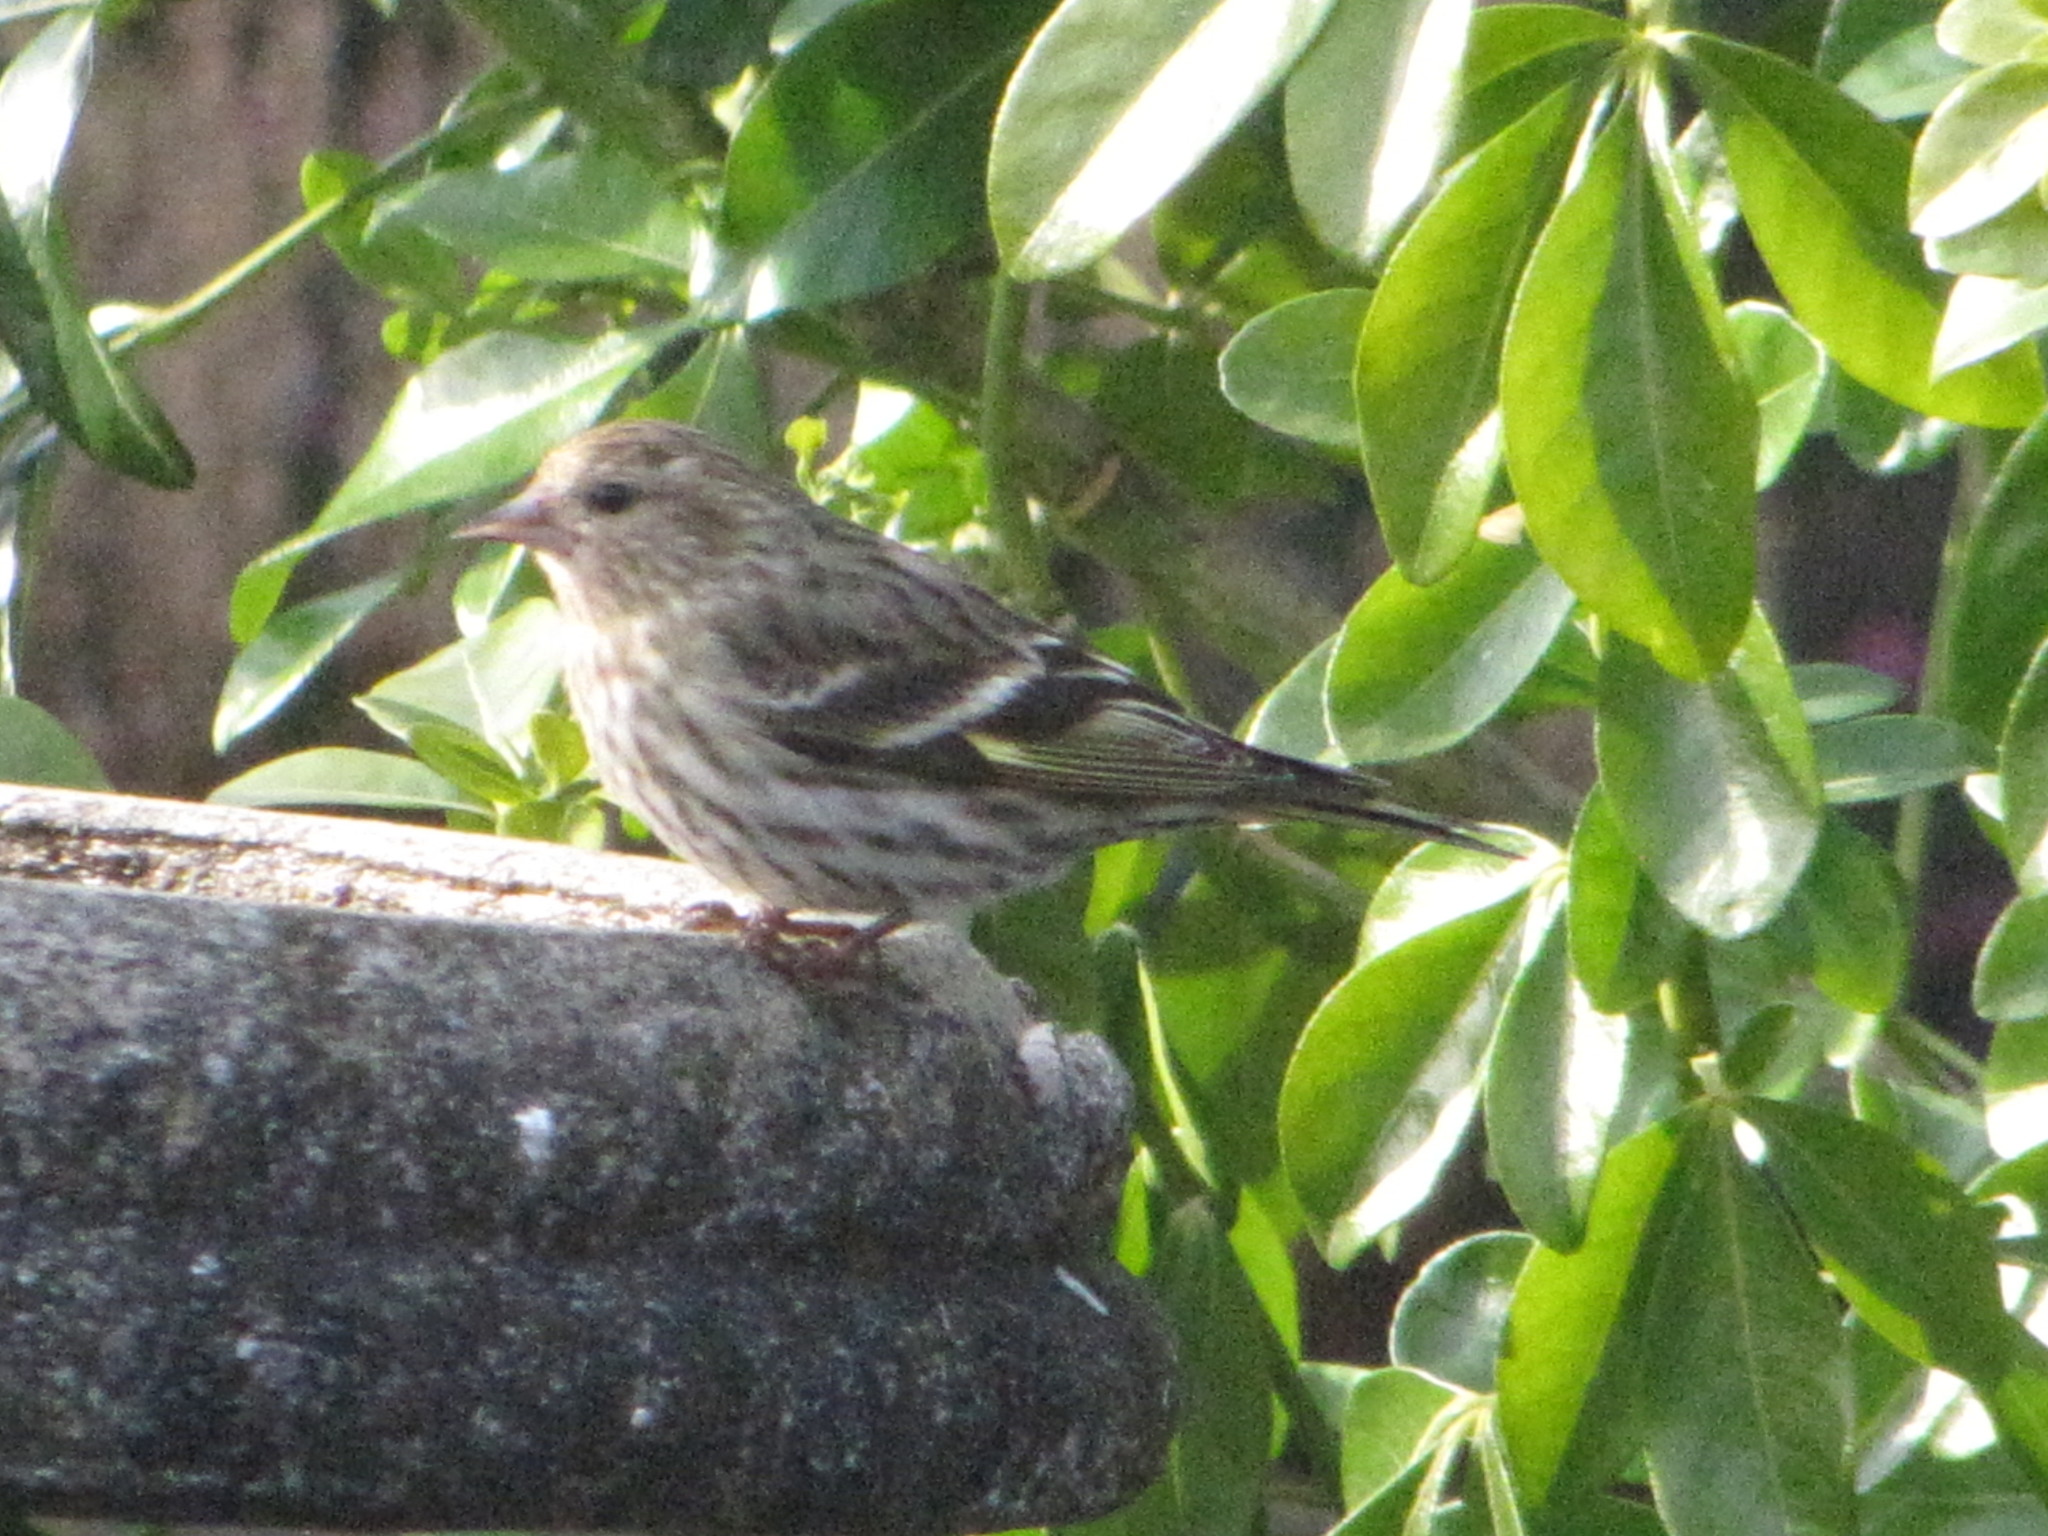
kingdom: Animalia
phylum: Chordata
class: Aves
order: Passeriformes
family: Fringillidae
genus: Spinus
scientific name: Spinus pinus
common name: Pine siskin
